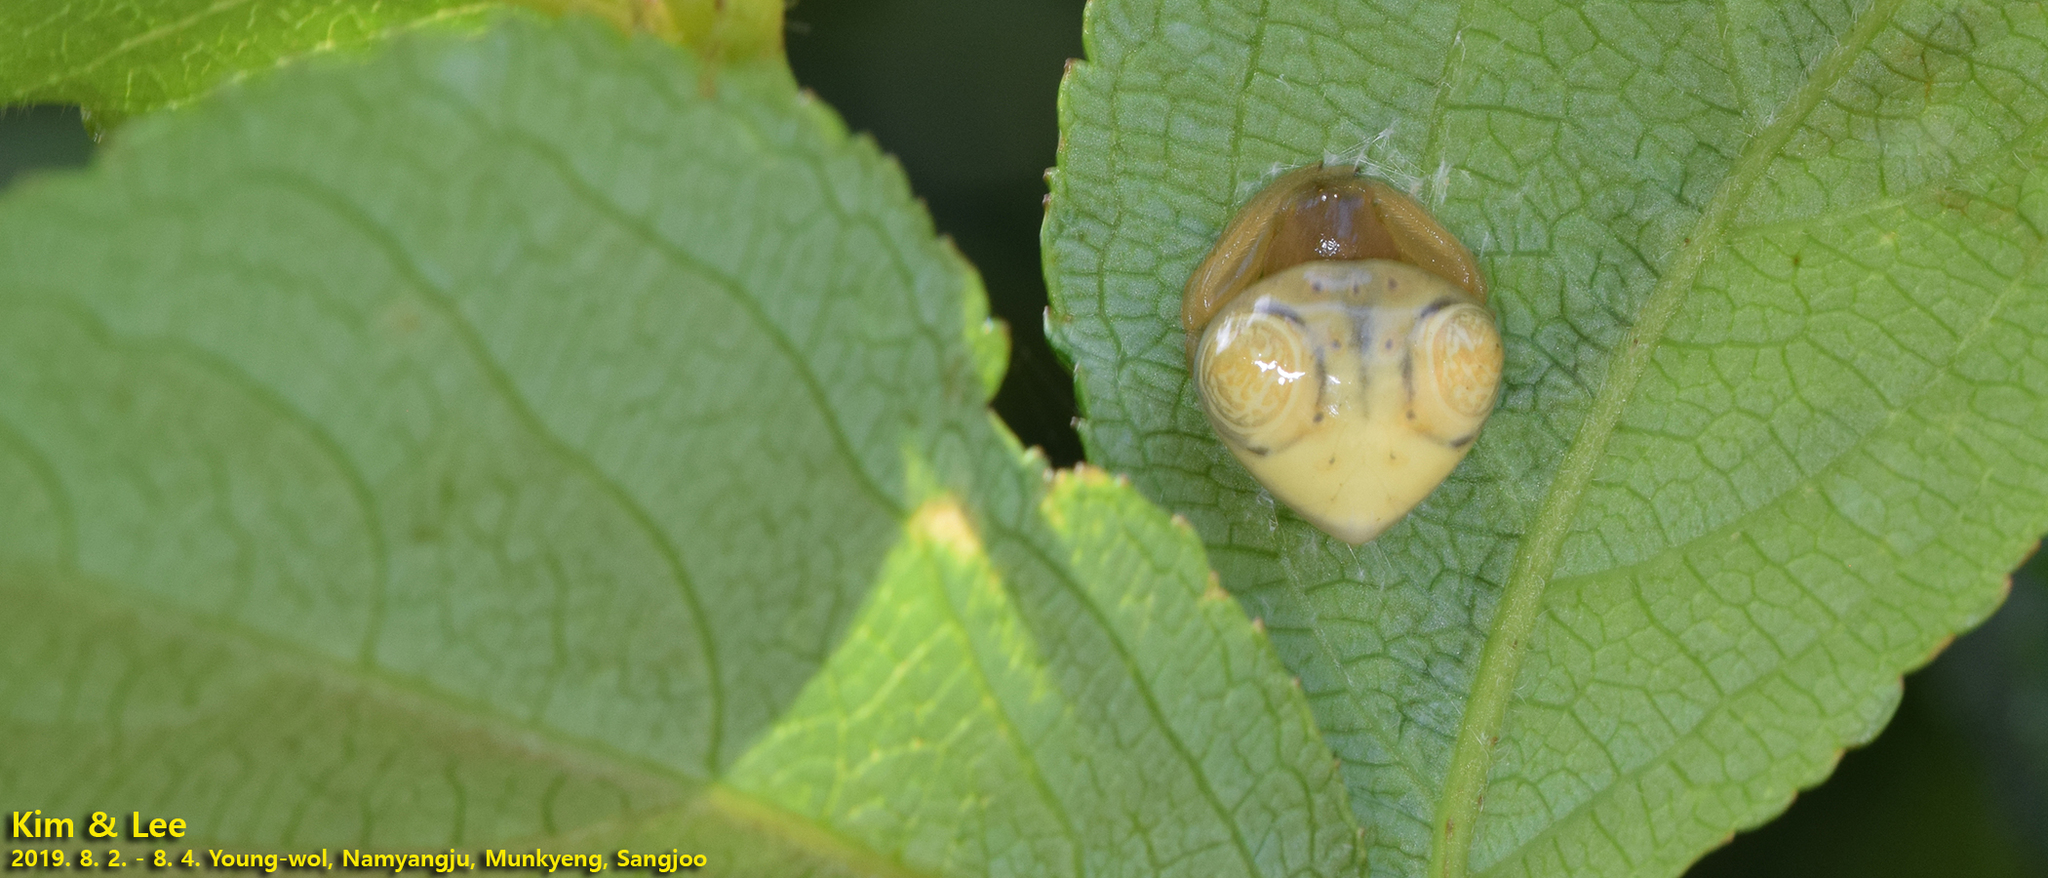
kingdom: Animalia
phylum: Arthropoda
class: Arachnida
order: Araneae
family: Araneidae
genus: Cyrtarachne
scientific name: Cyrtarachne inaequalis
